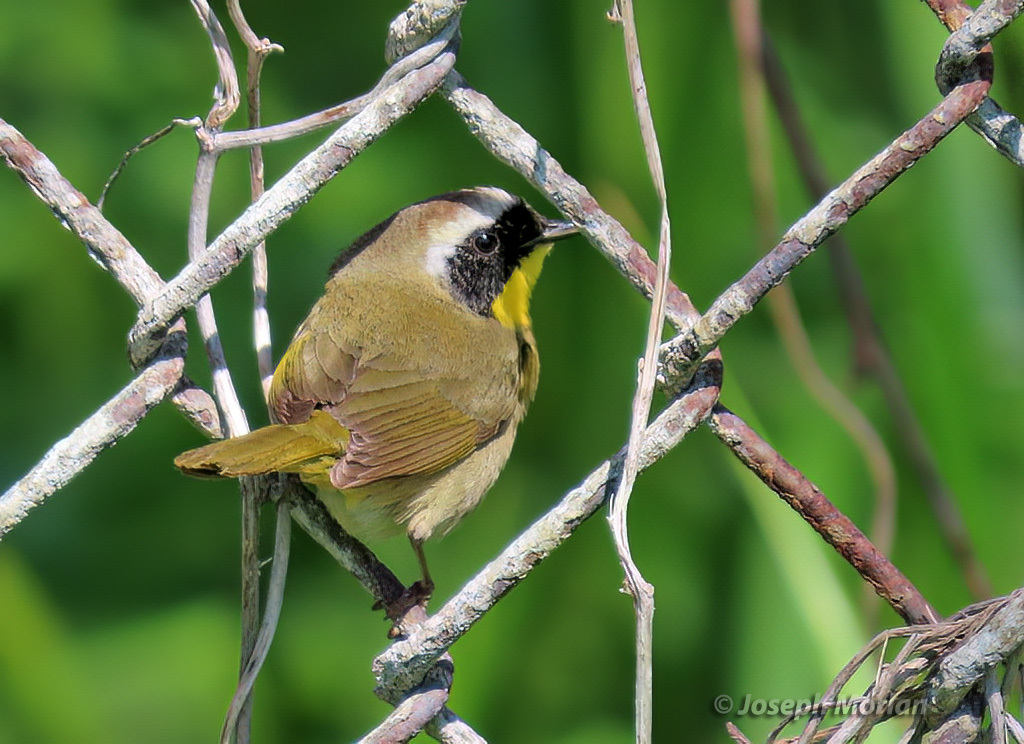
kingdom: Animalia
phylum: Chordata
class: Aves
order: Passeriformes
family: Parulidae
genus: Geothlypis
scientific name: Geothlypis trichas
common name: Common yellowthroat
